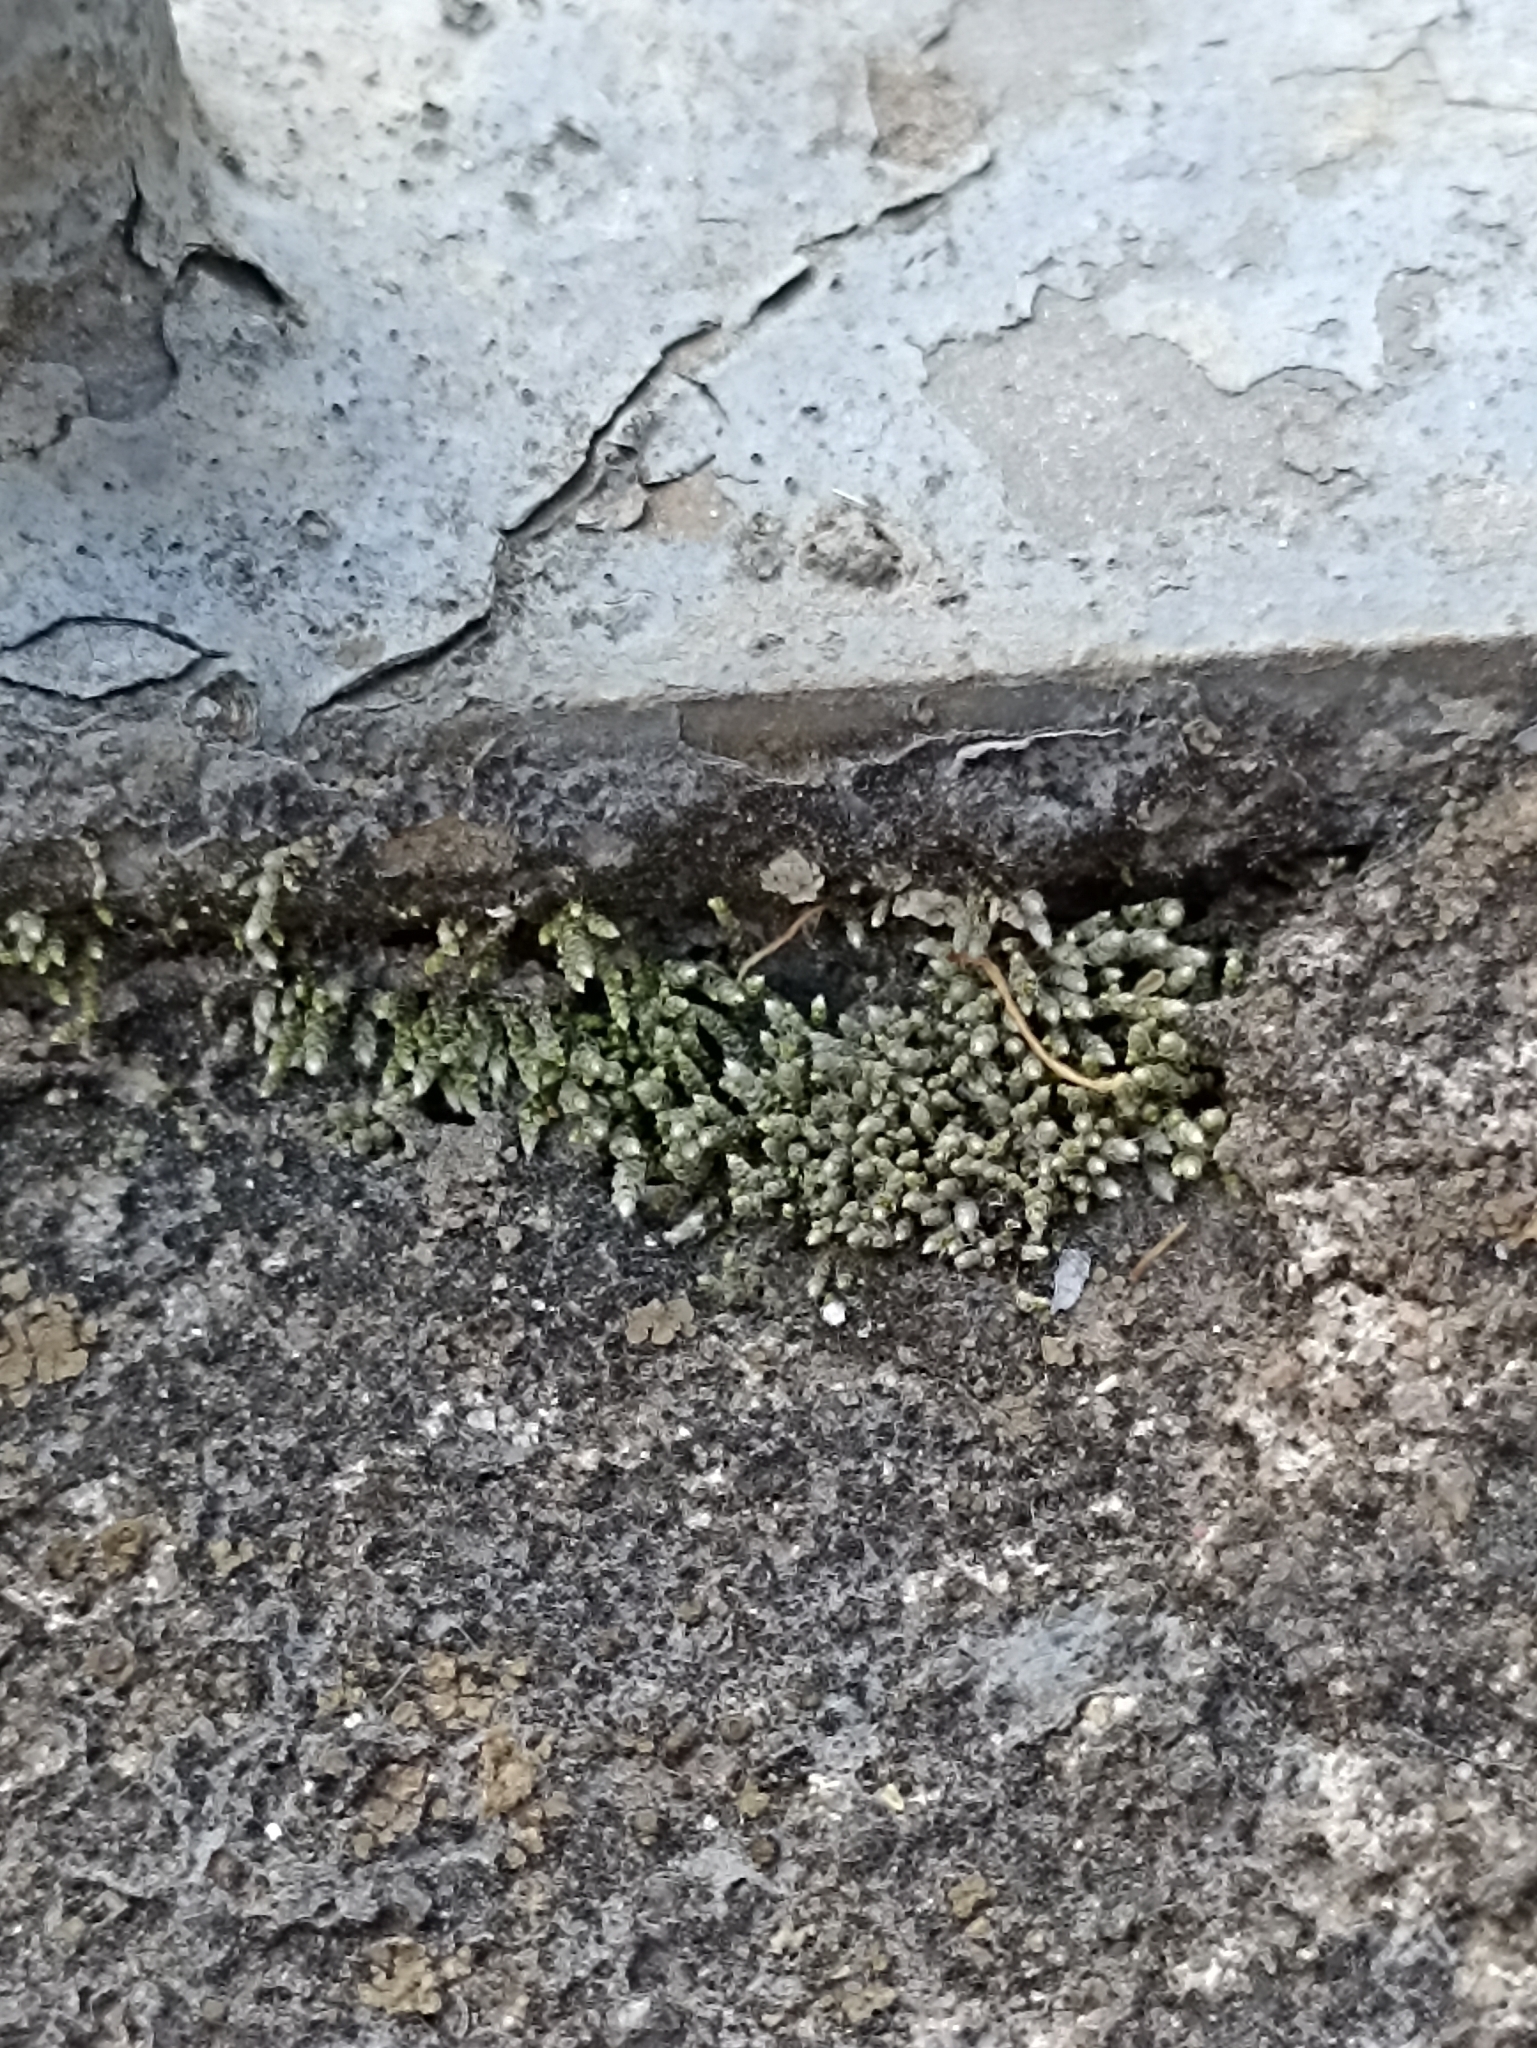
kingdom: Plantae
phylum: Bryophyta
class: Bryopsida
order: Bryales
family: Bryaceae
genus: Bryum
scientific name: Bryum argenteum
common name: Silver-moss
